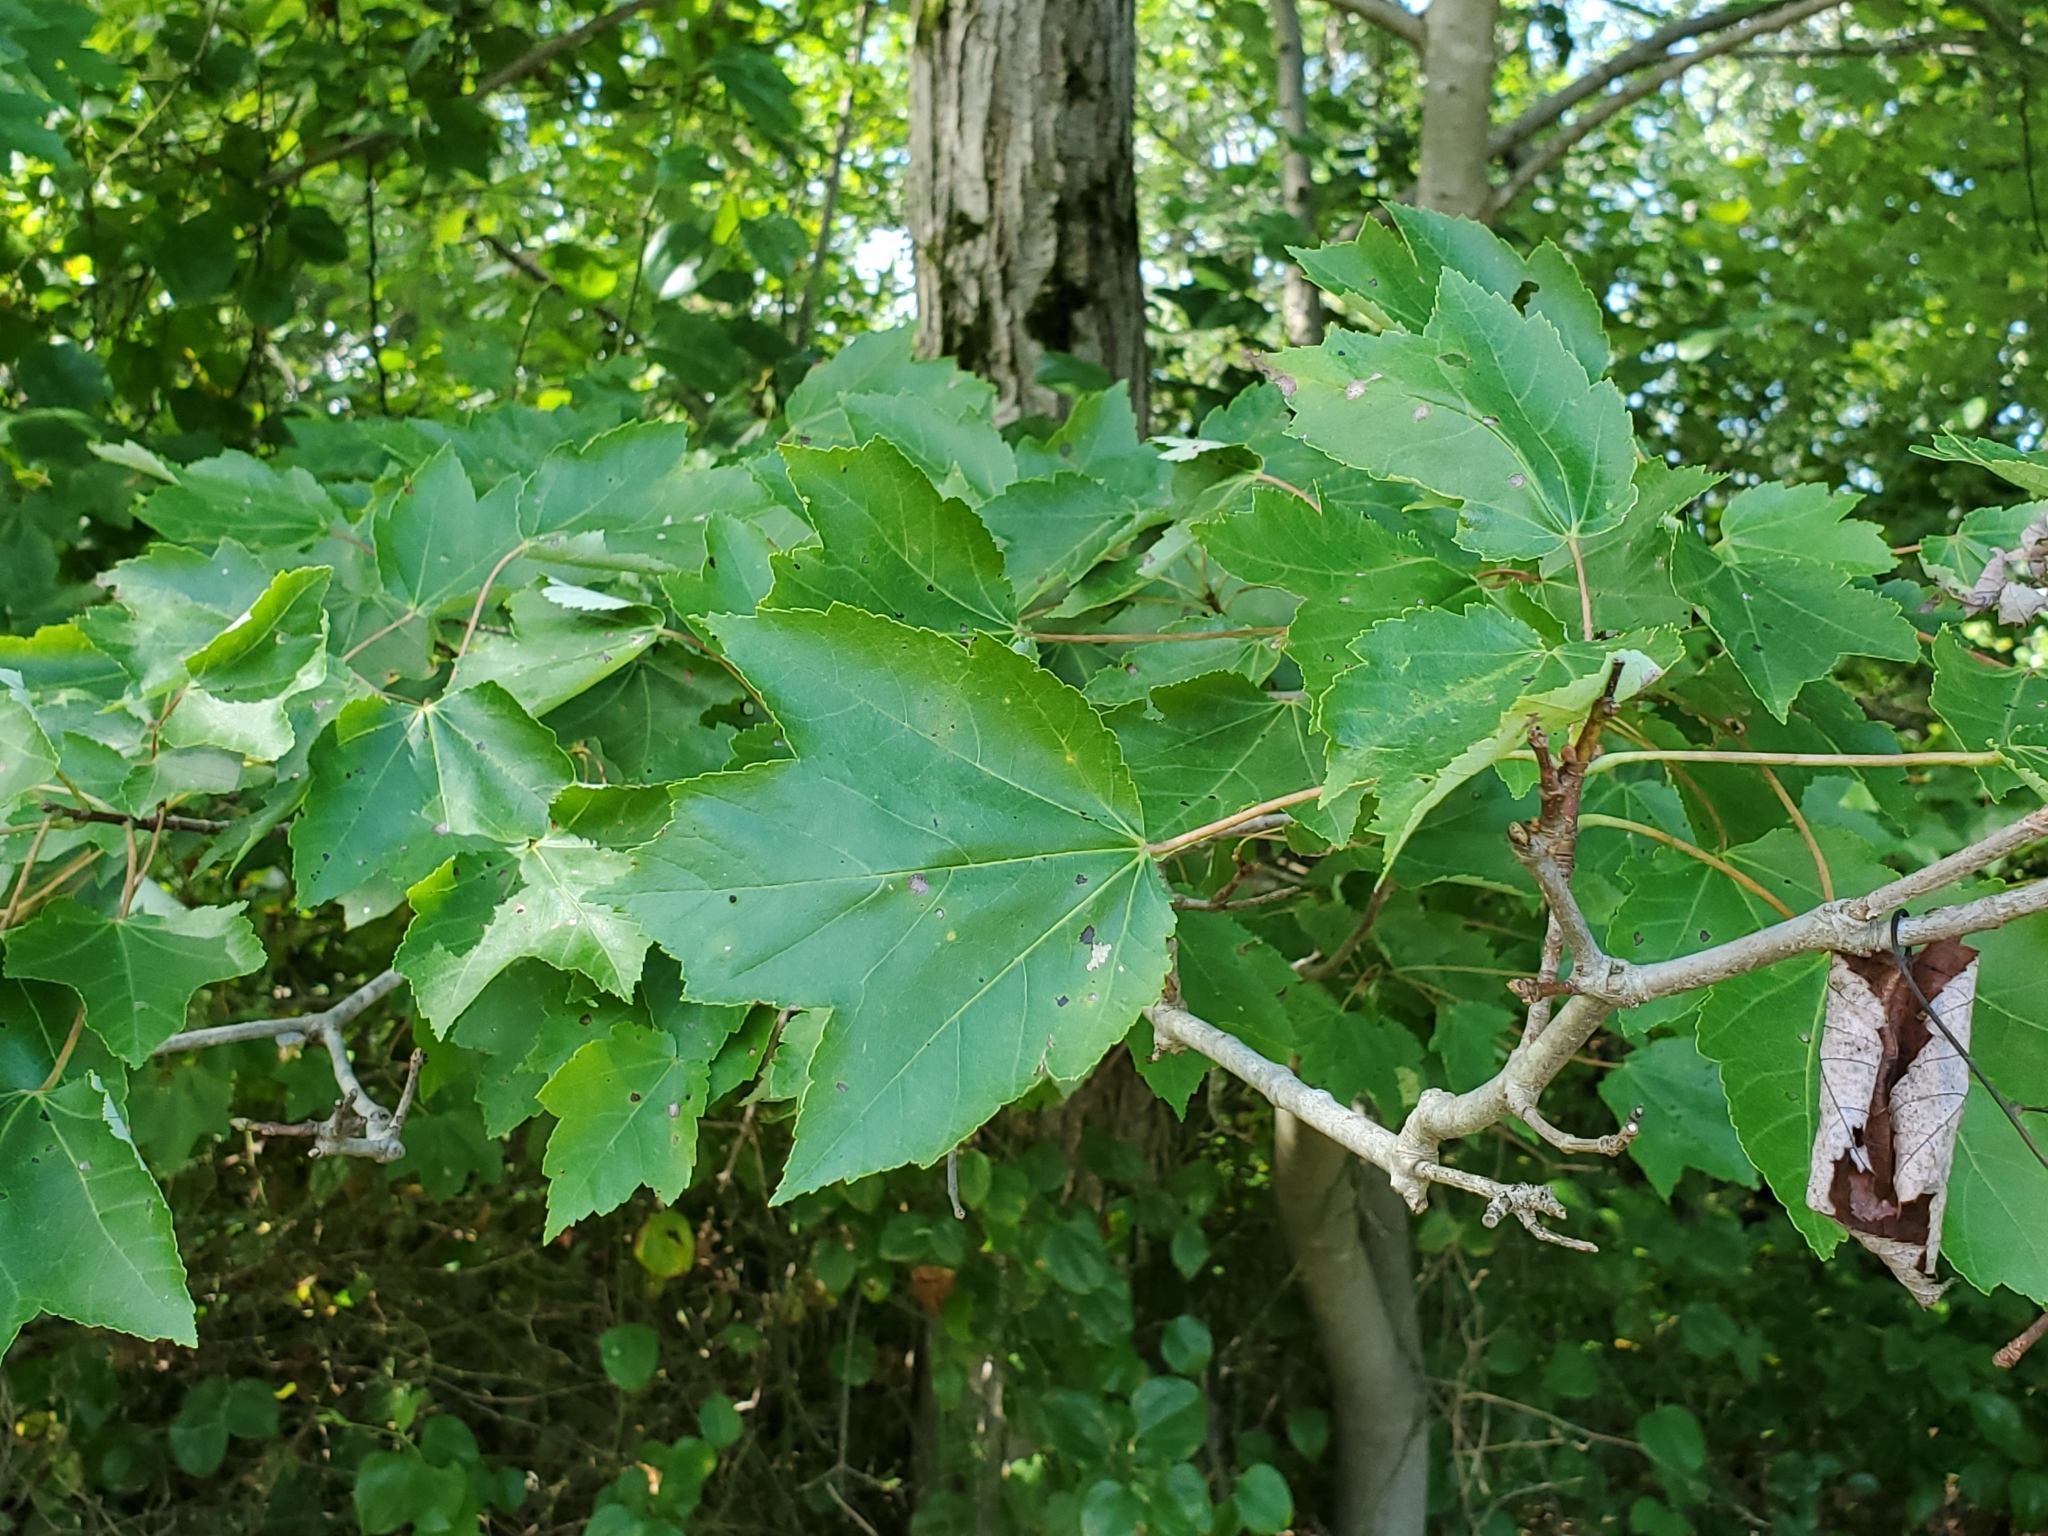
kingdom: Plantae
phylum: Tracheophyta
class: Magnoliopsida
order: Sapindales
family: Sapindaceae
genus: Acer
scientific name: Acer rubrum
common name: Red maple
